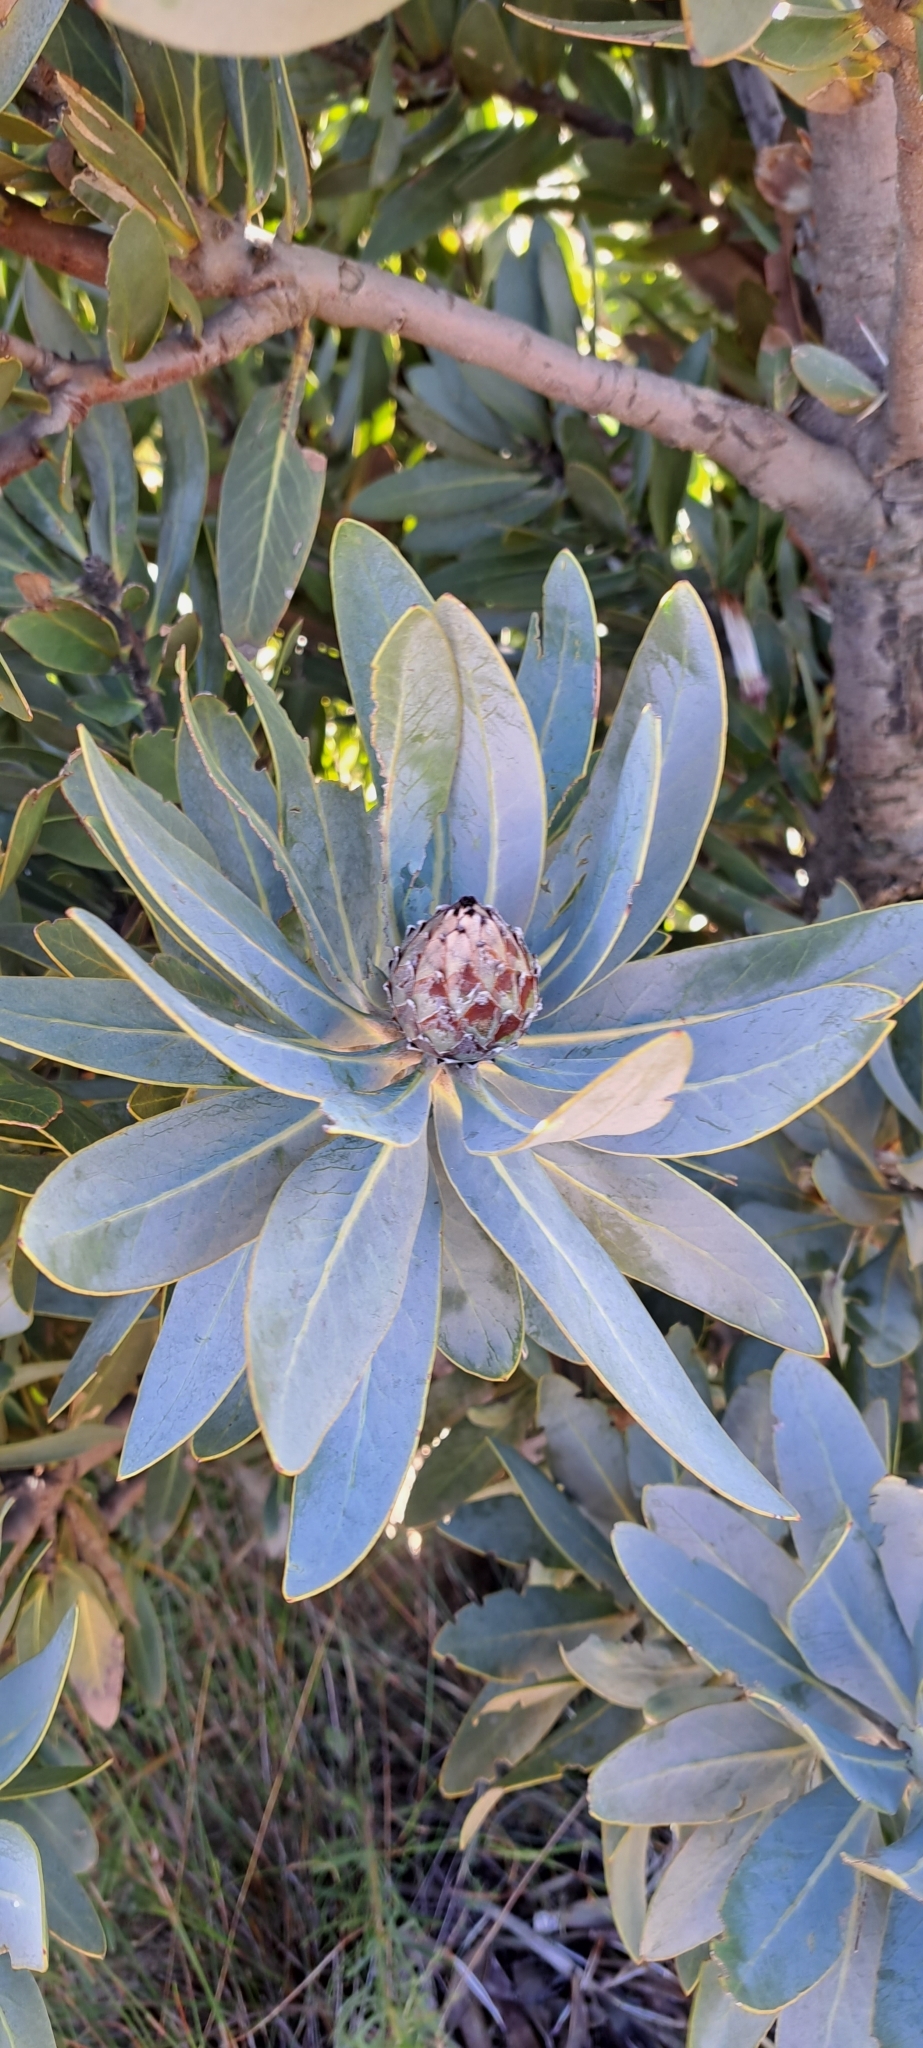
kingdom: Plantae
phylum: Tracheophyta
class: Magnoliopsida
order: Proteales
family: Proteaceae
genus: Protea
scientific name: Protea laurifolia
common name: Grey-leaf sugarbsh
